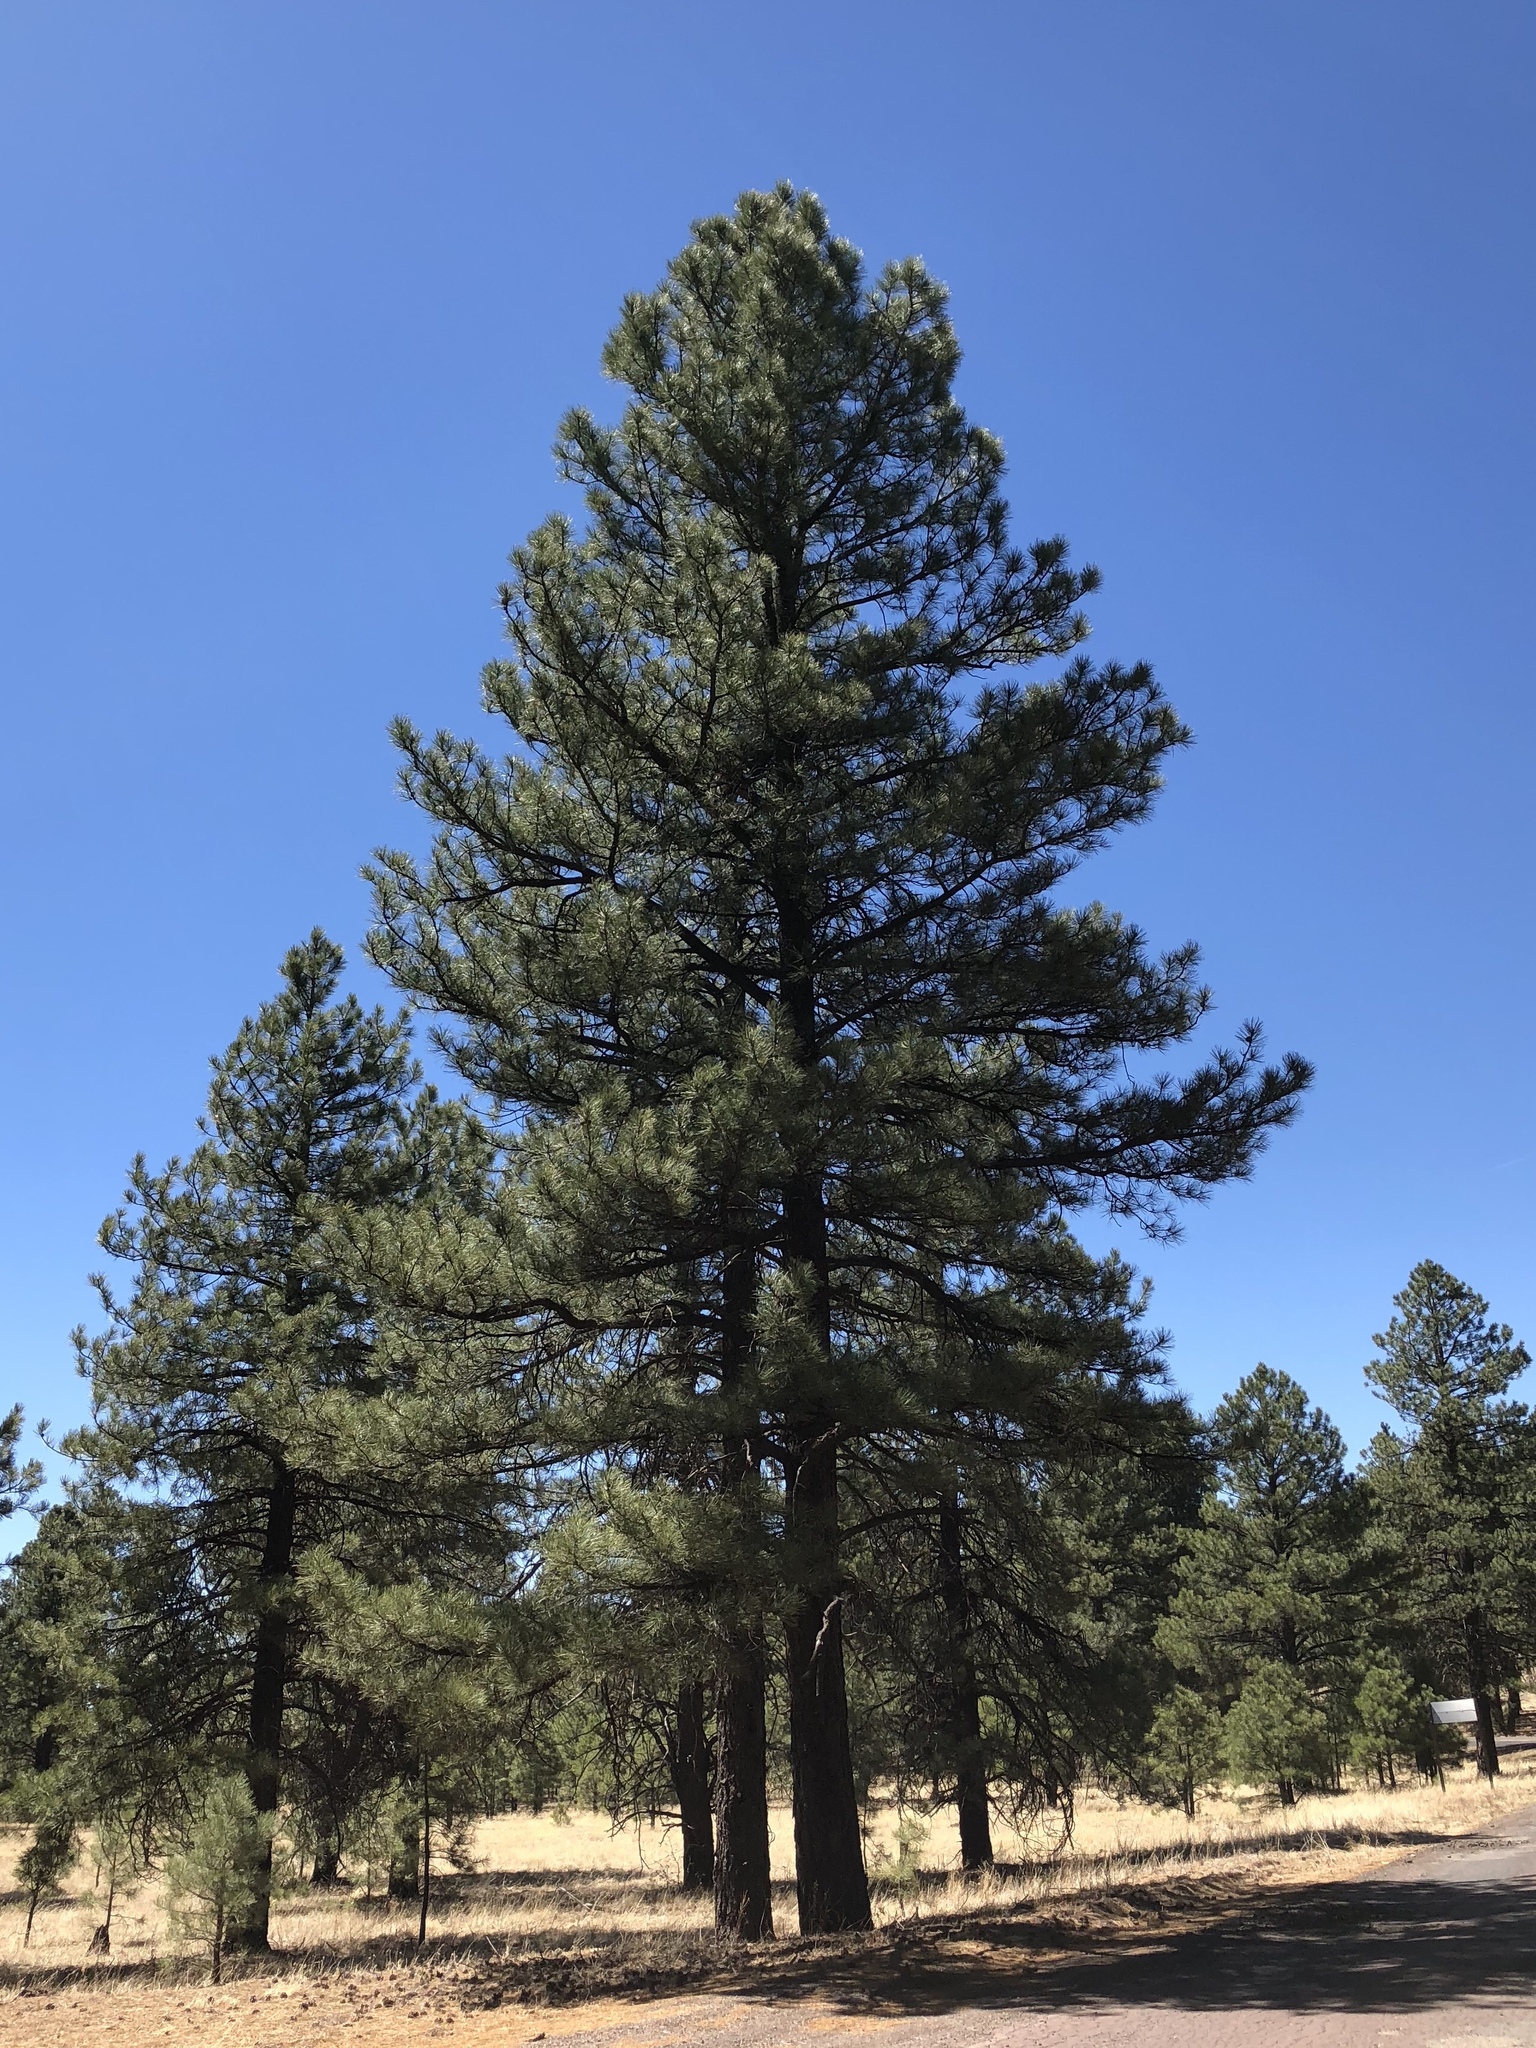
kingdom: Plantae
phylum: Tracheophyta
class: Pinopsida
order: Pinales
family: Pinaceae
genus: Pinus
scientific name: Pinus ponderosa
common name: Western yellow-pine
